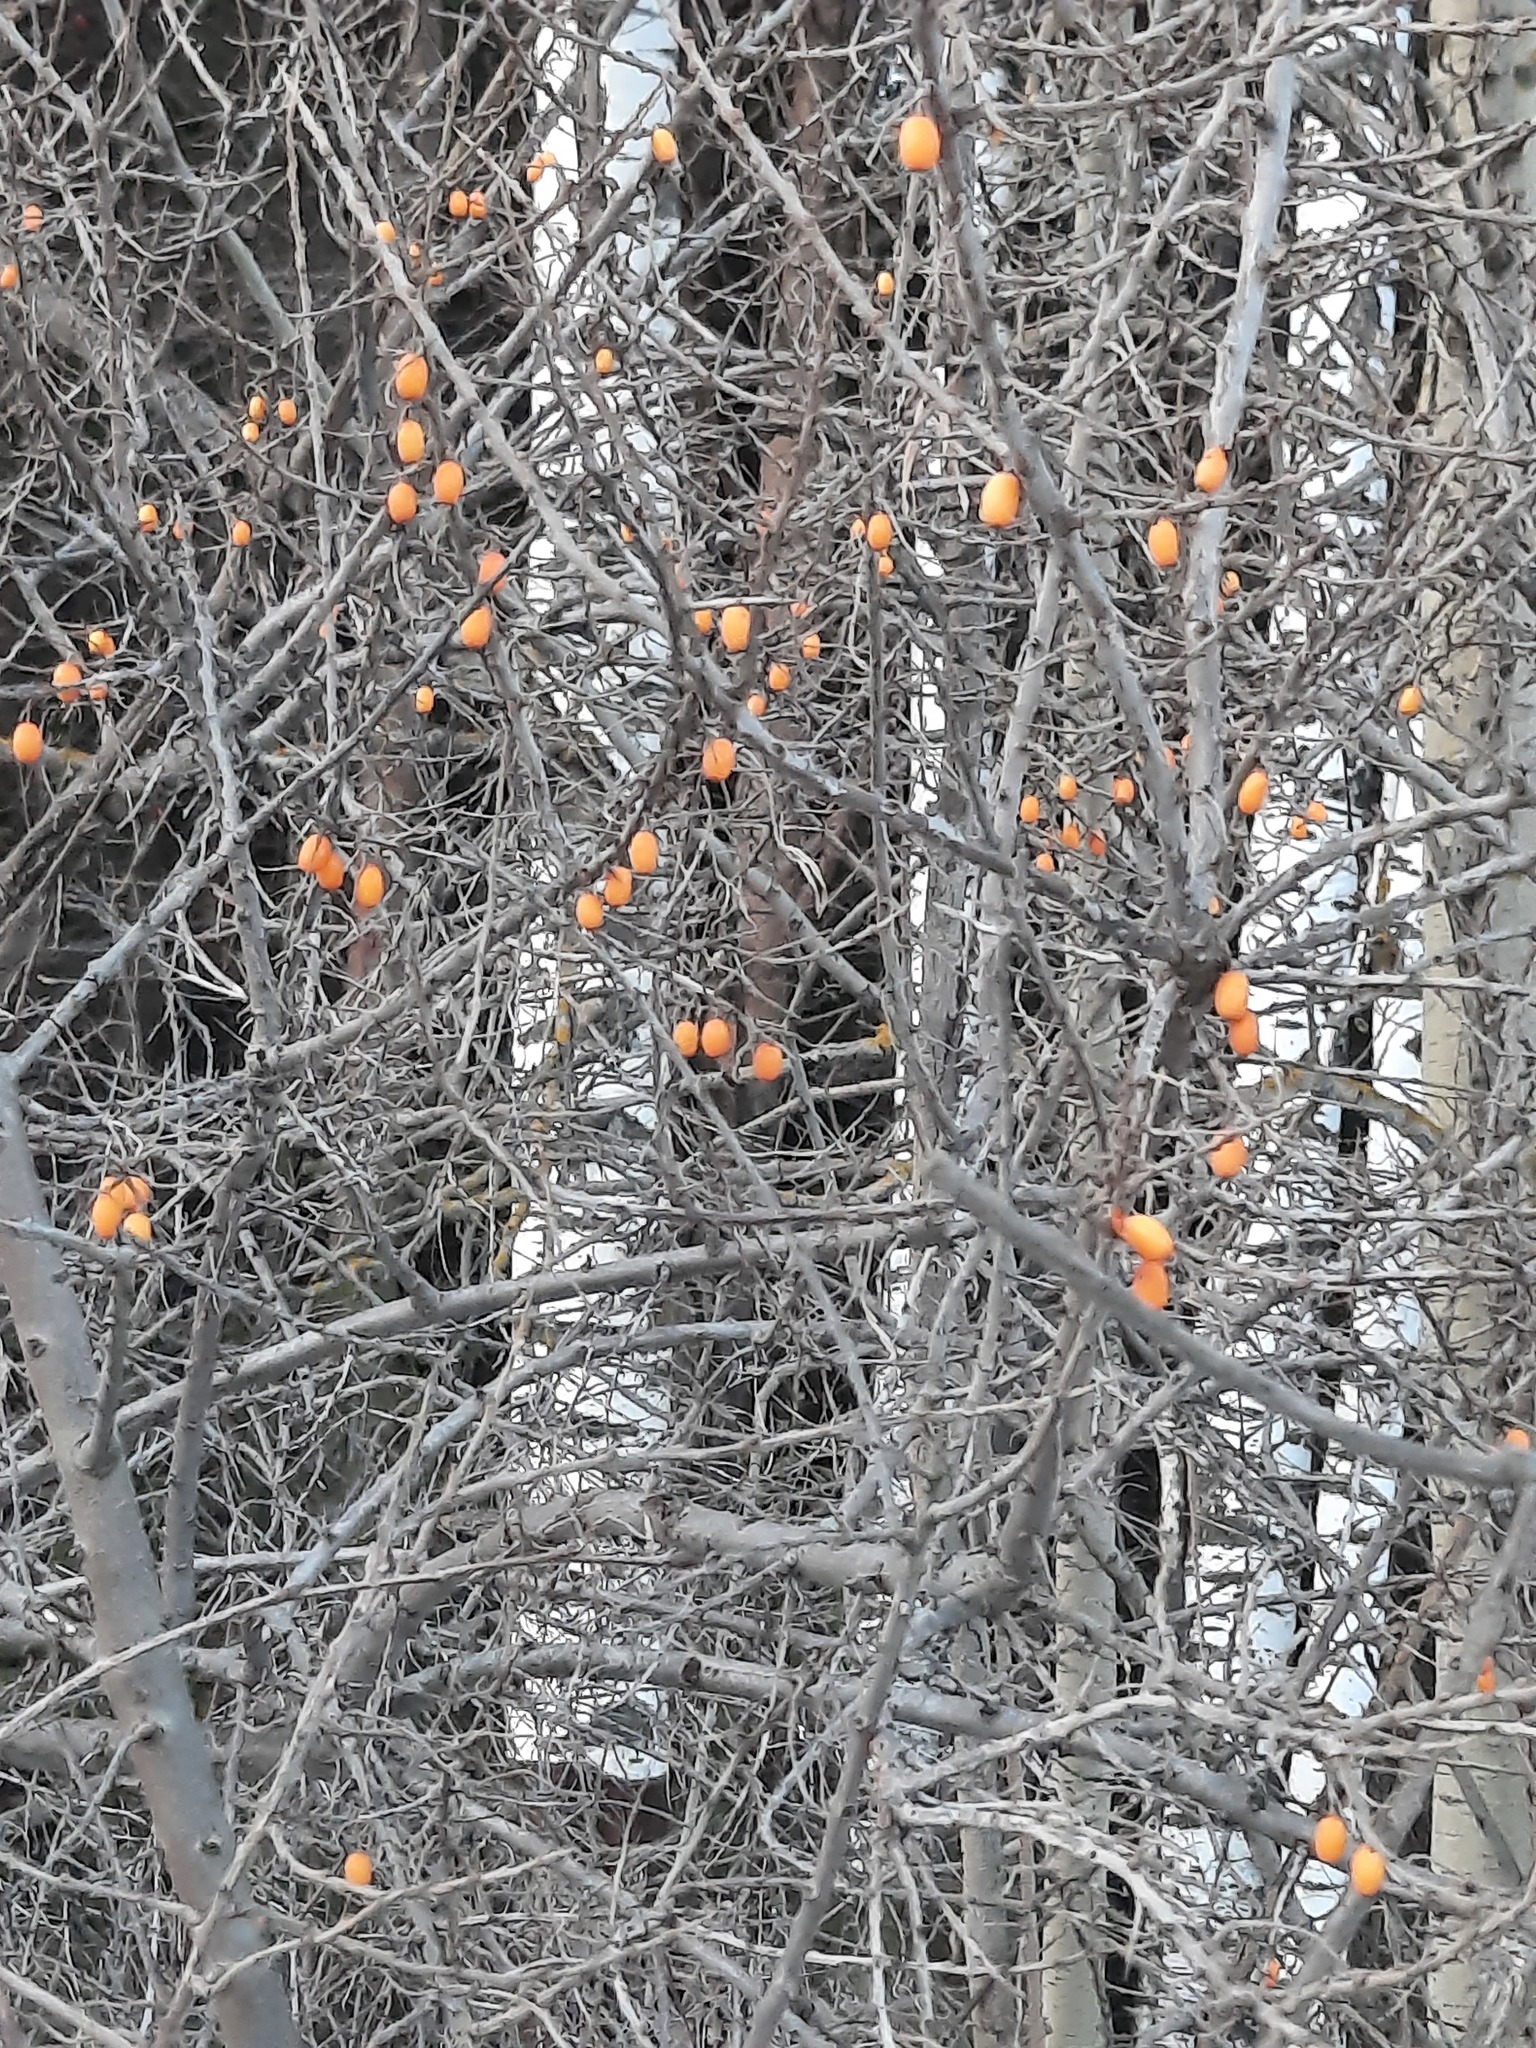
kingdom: Plantae
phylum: Tracheophyta
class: Magnoliopsida
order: Rosales
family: Elaeagnaceae
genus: Hippophae
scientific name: Hippophae rhamnoides
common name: Sea-buckthorn
